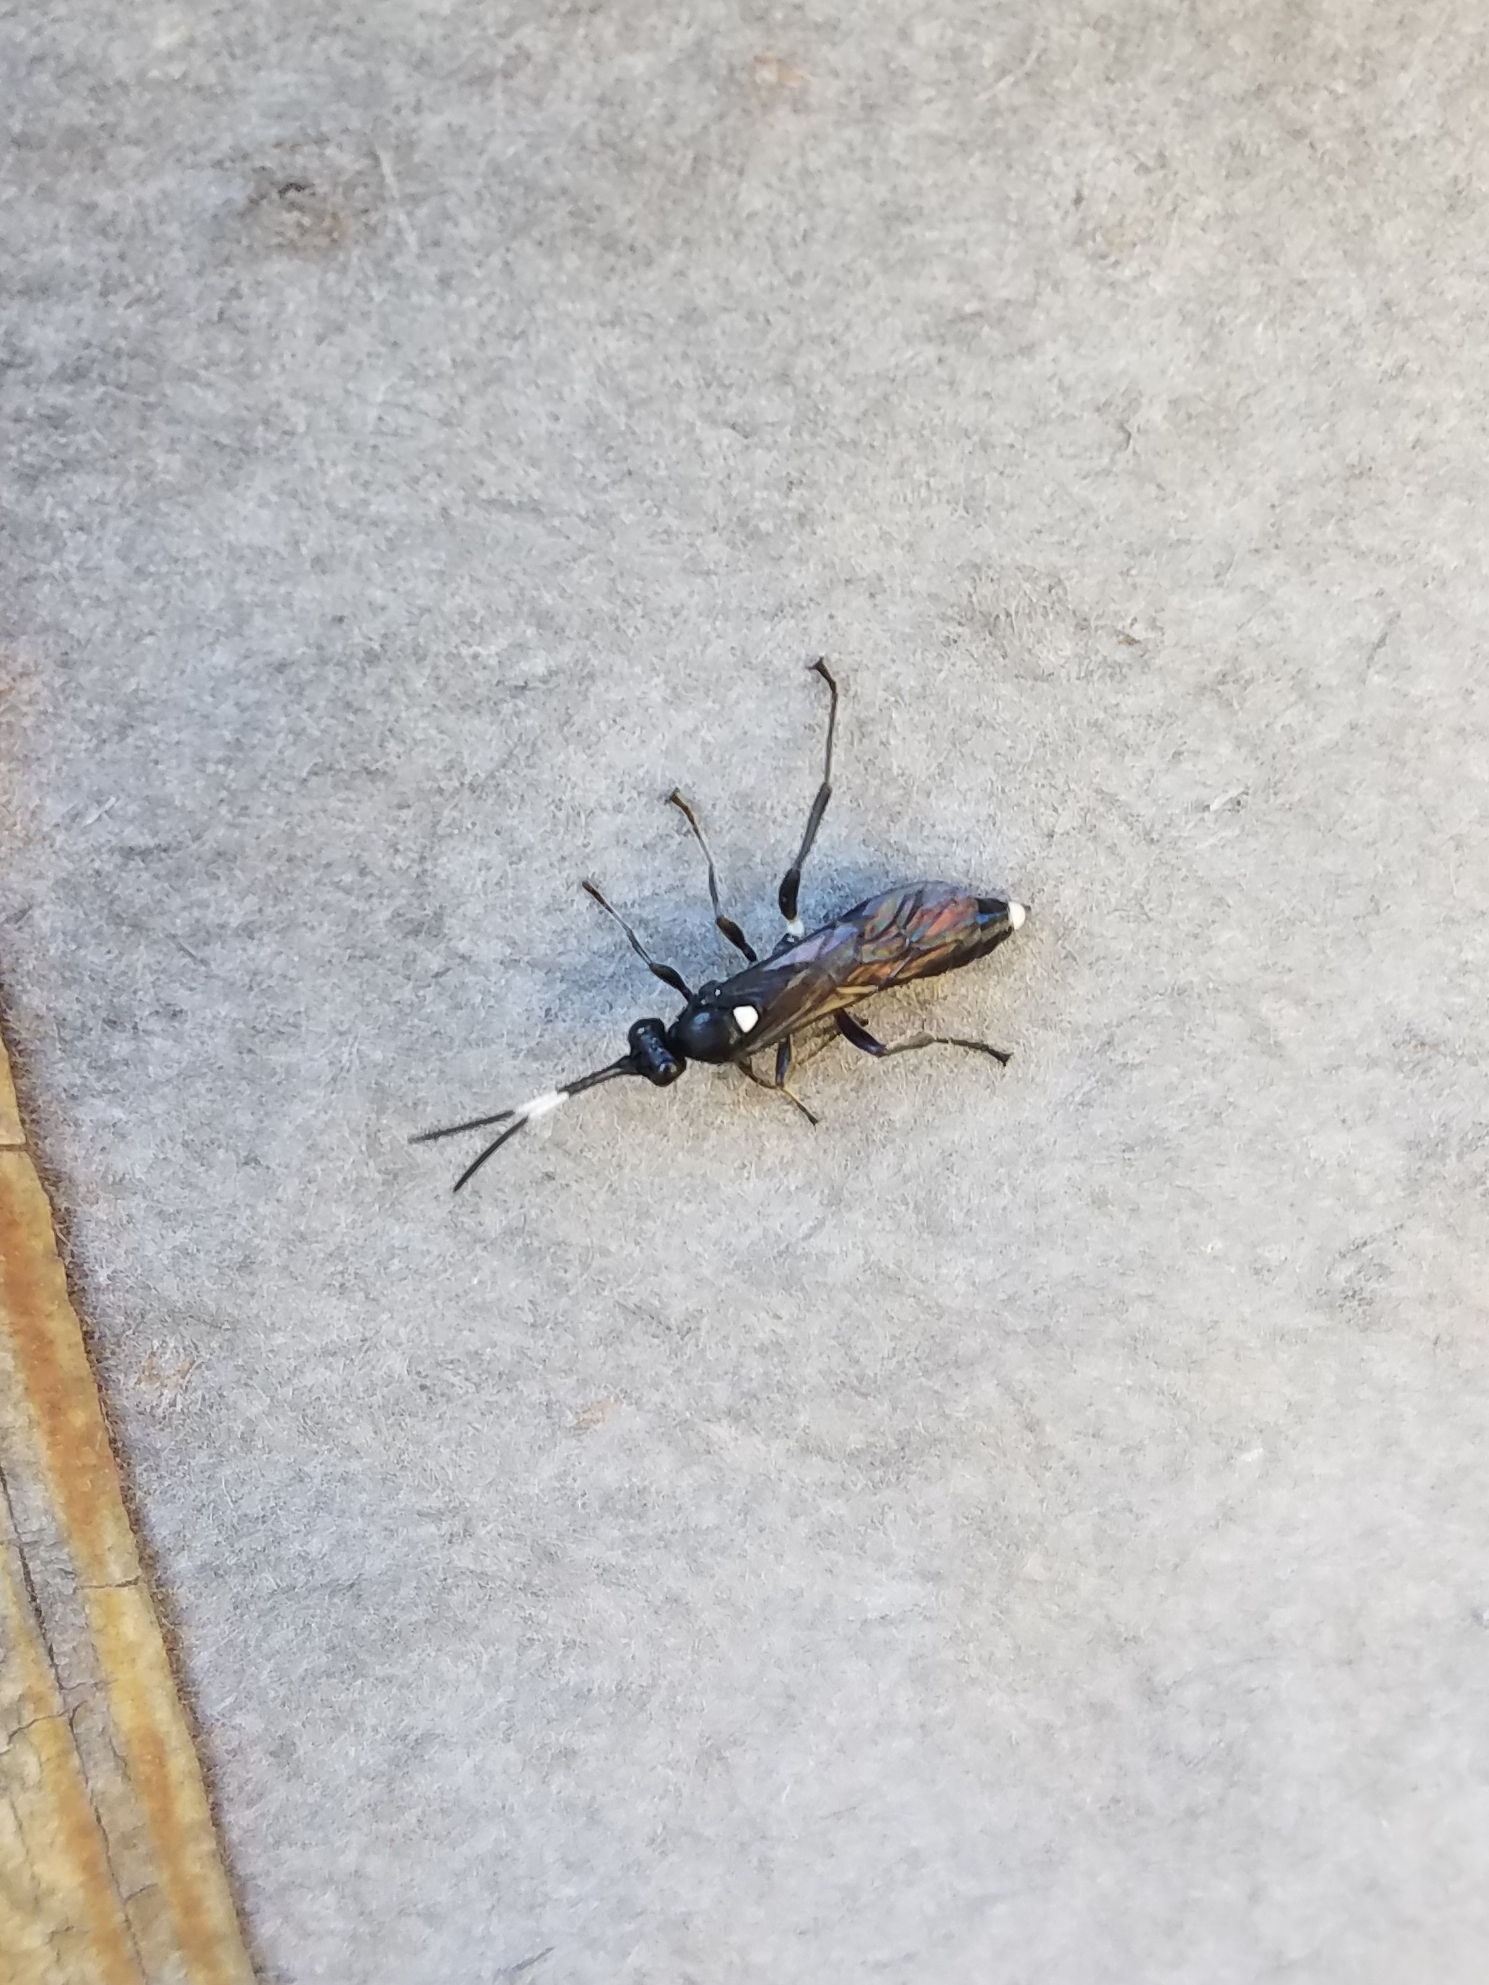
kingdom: Animalia
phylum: Arthropoda
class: Insecta
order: Hymenoptera
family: Ichneumonidae
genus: Vulgichneumon
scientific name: Vulgichneumon brevicinctor
